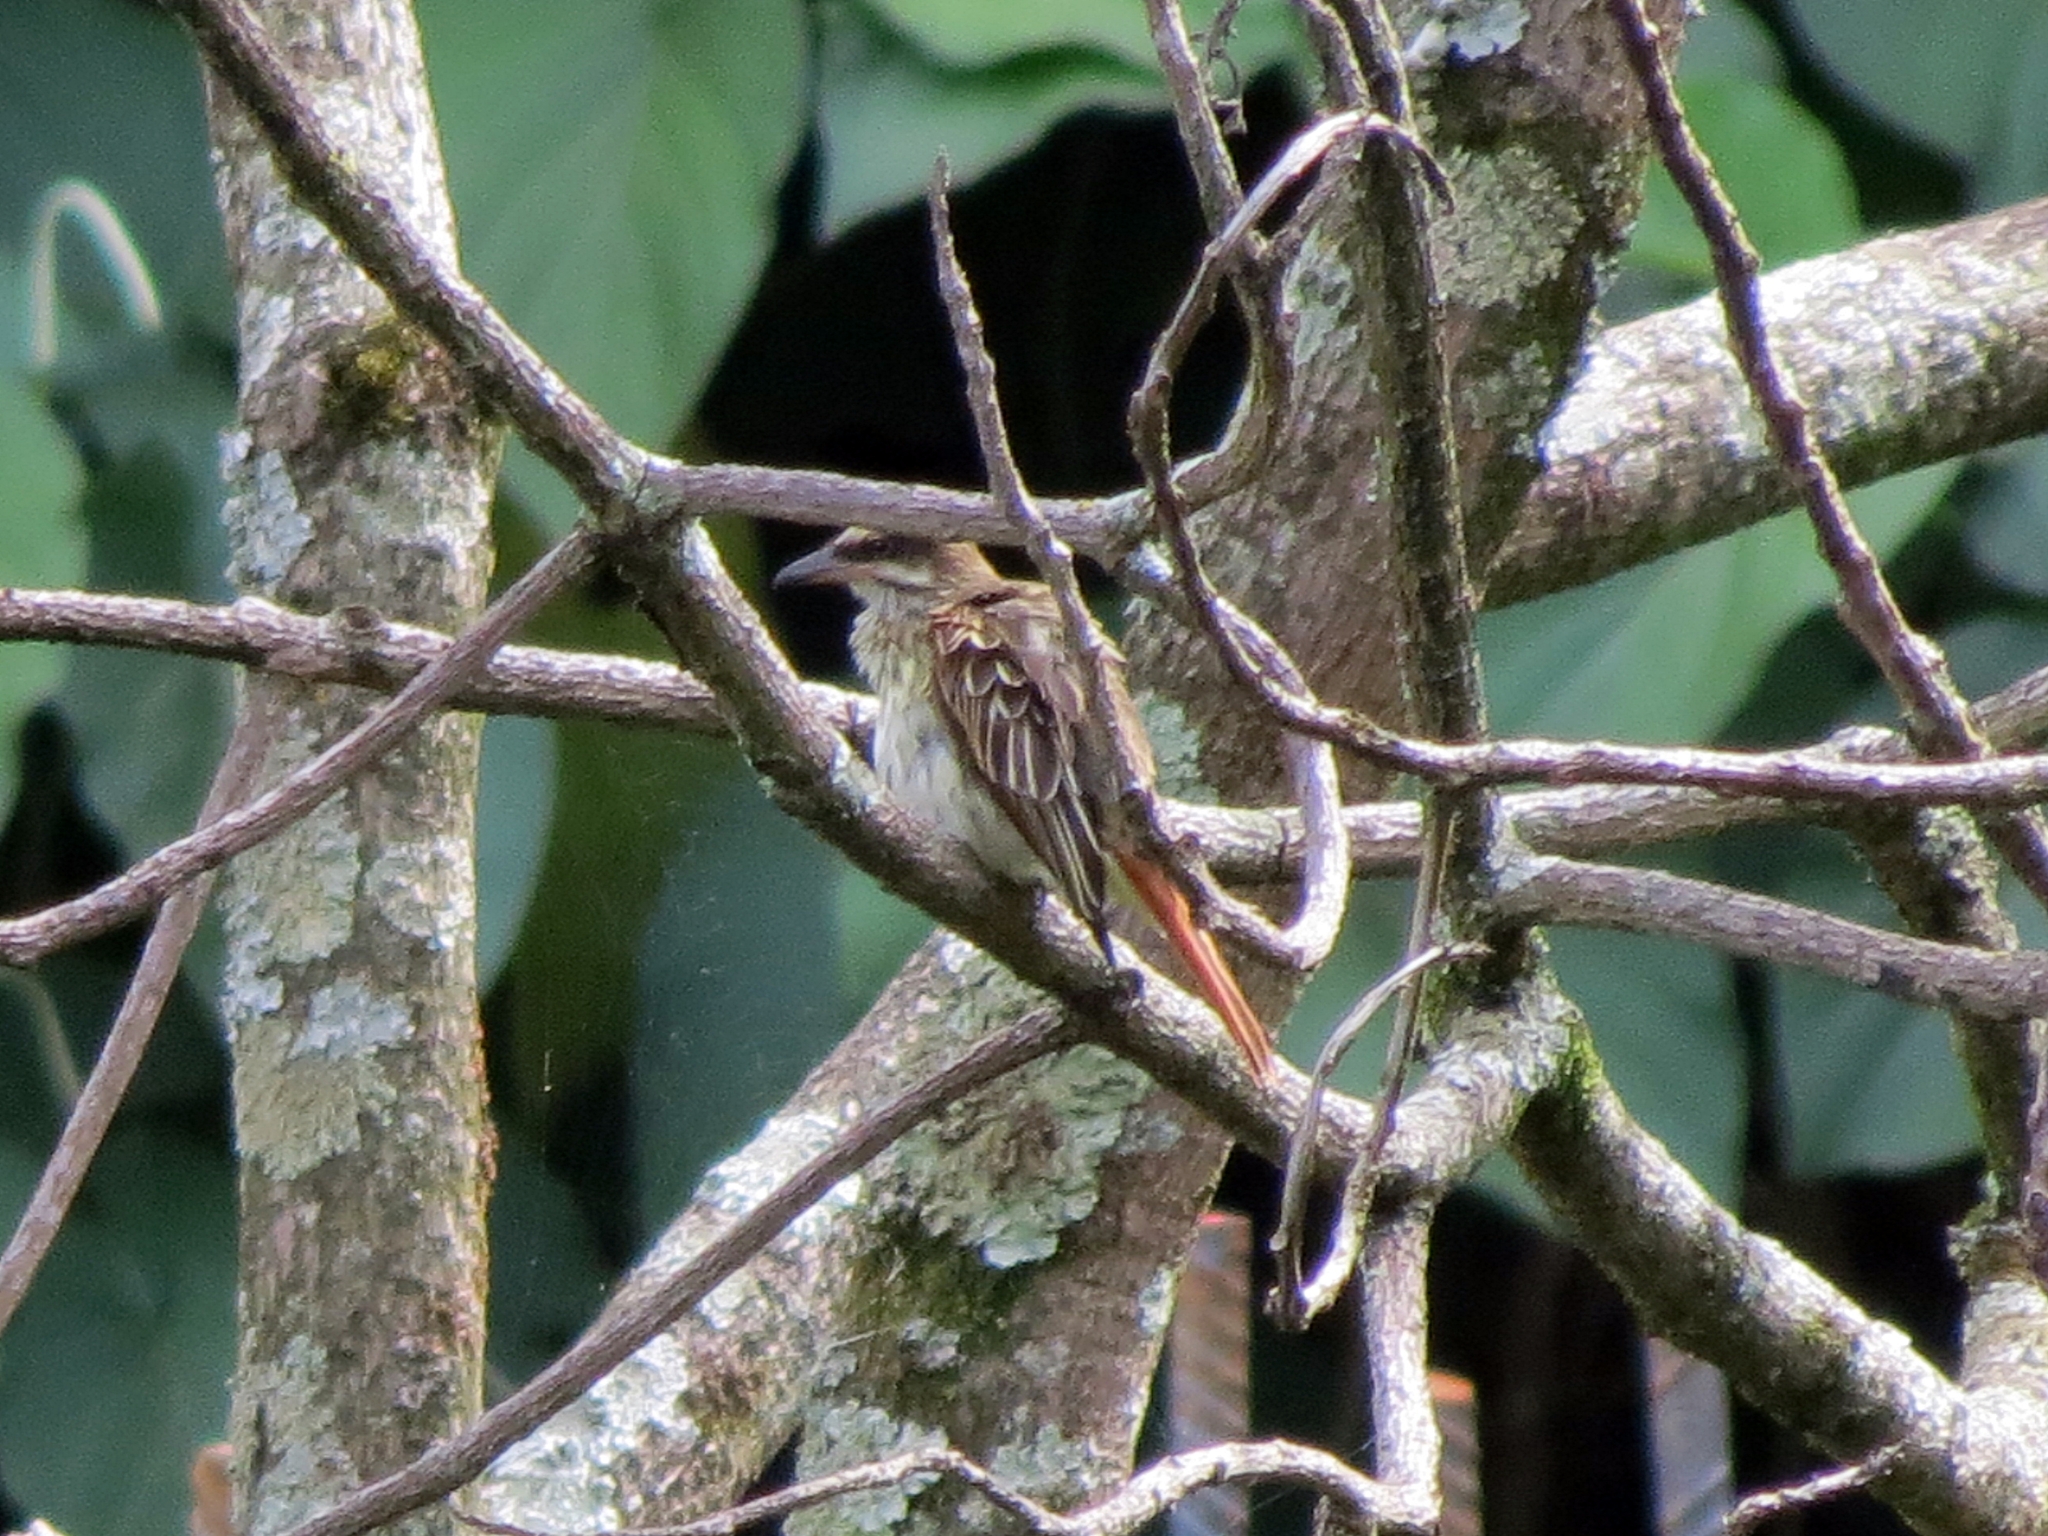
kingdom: Animalia
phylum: Chordata
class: Aves
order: Passeriformes
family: Tyrannidae
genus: Myiodynastes
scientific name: Myiodynastes maculatus
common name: Streaked flycatcher
